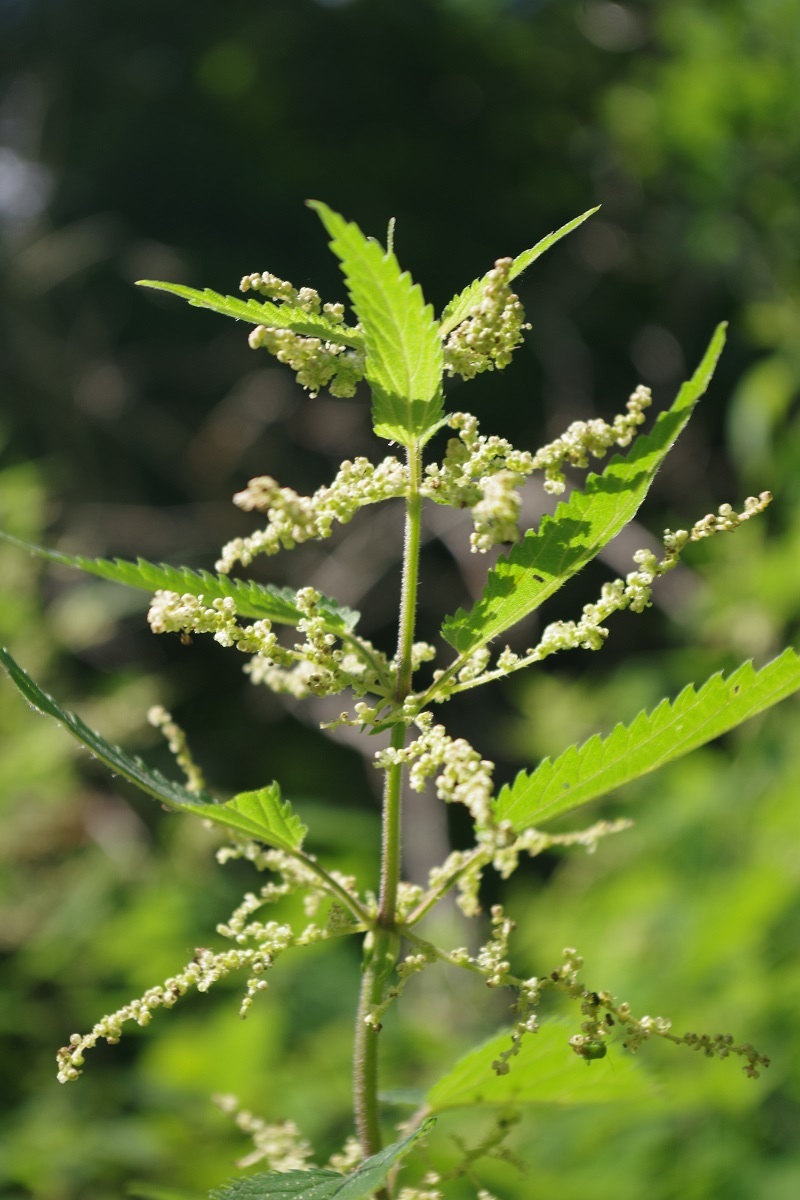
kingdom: Plantae
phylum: Tracheophyta
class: Magnoliopsida
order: Rosales
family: Urticaceae
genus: Urtica
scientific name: Urtica dioica
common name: Common nettle
